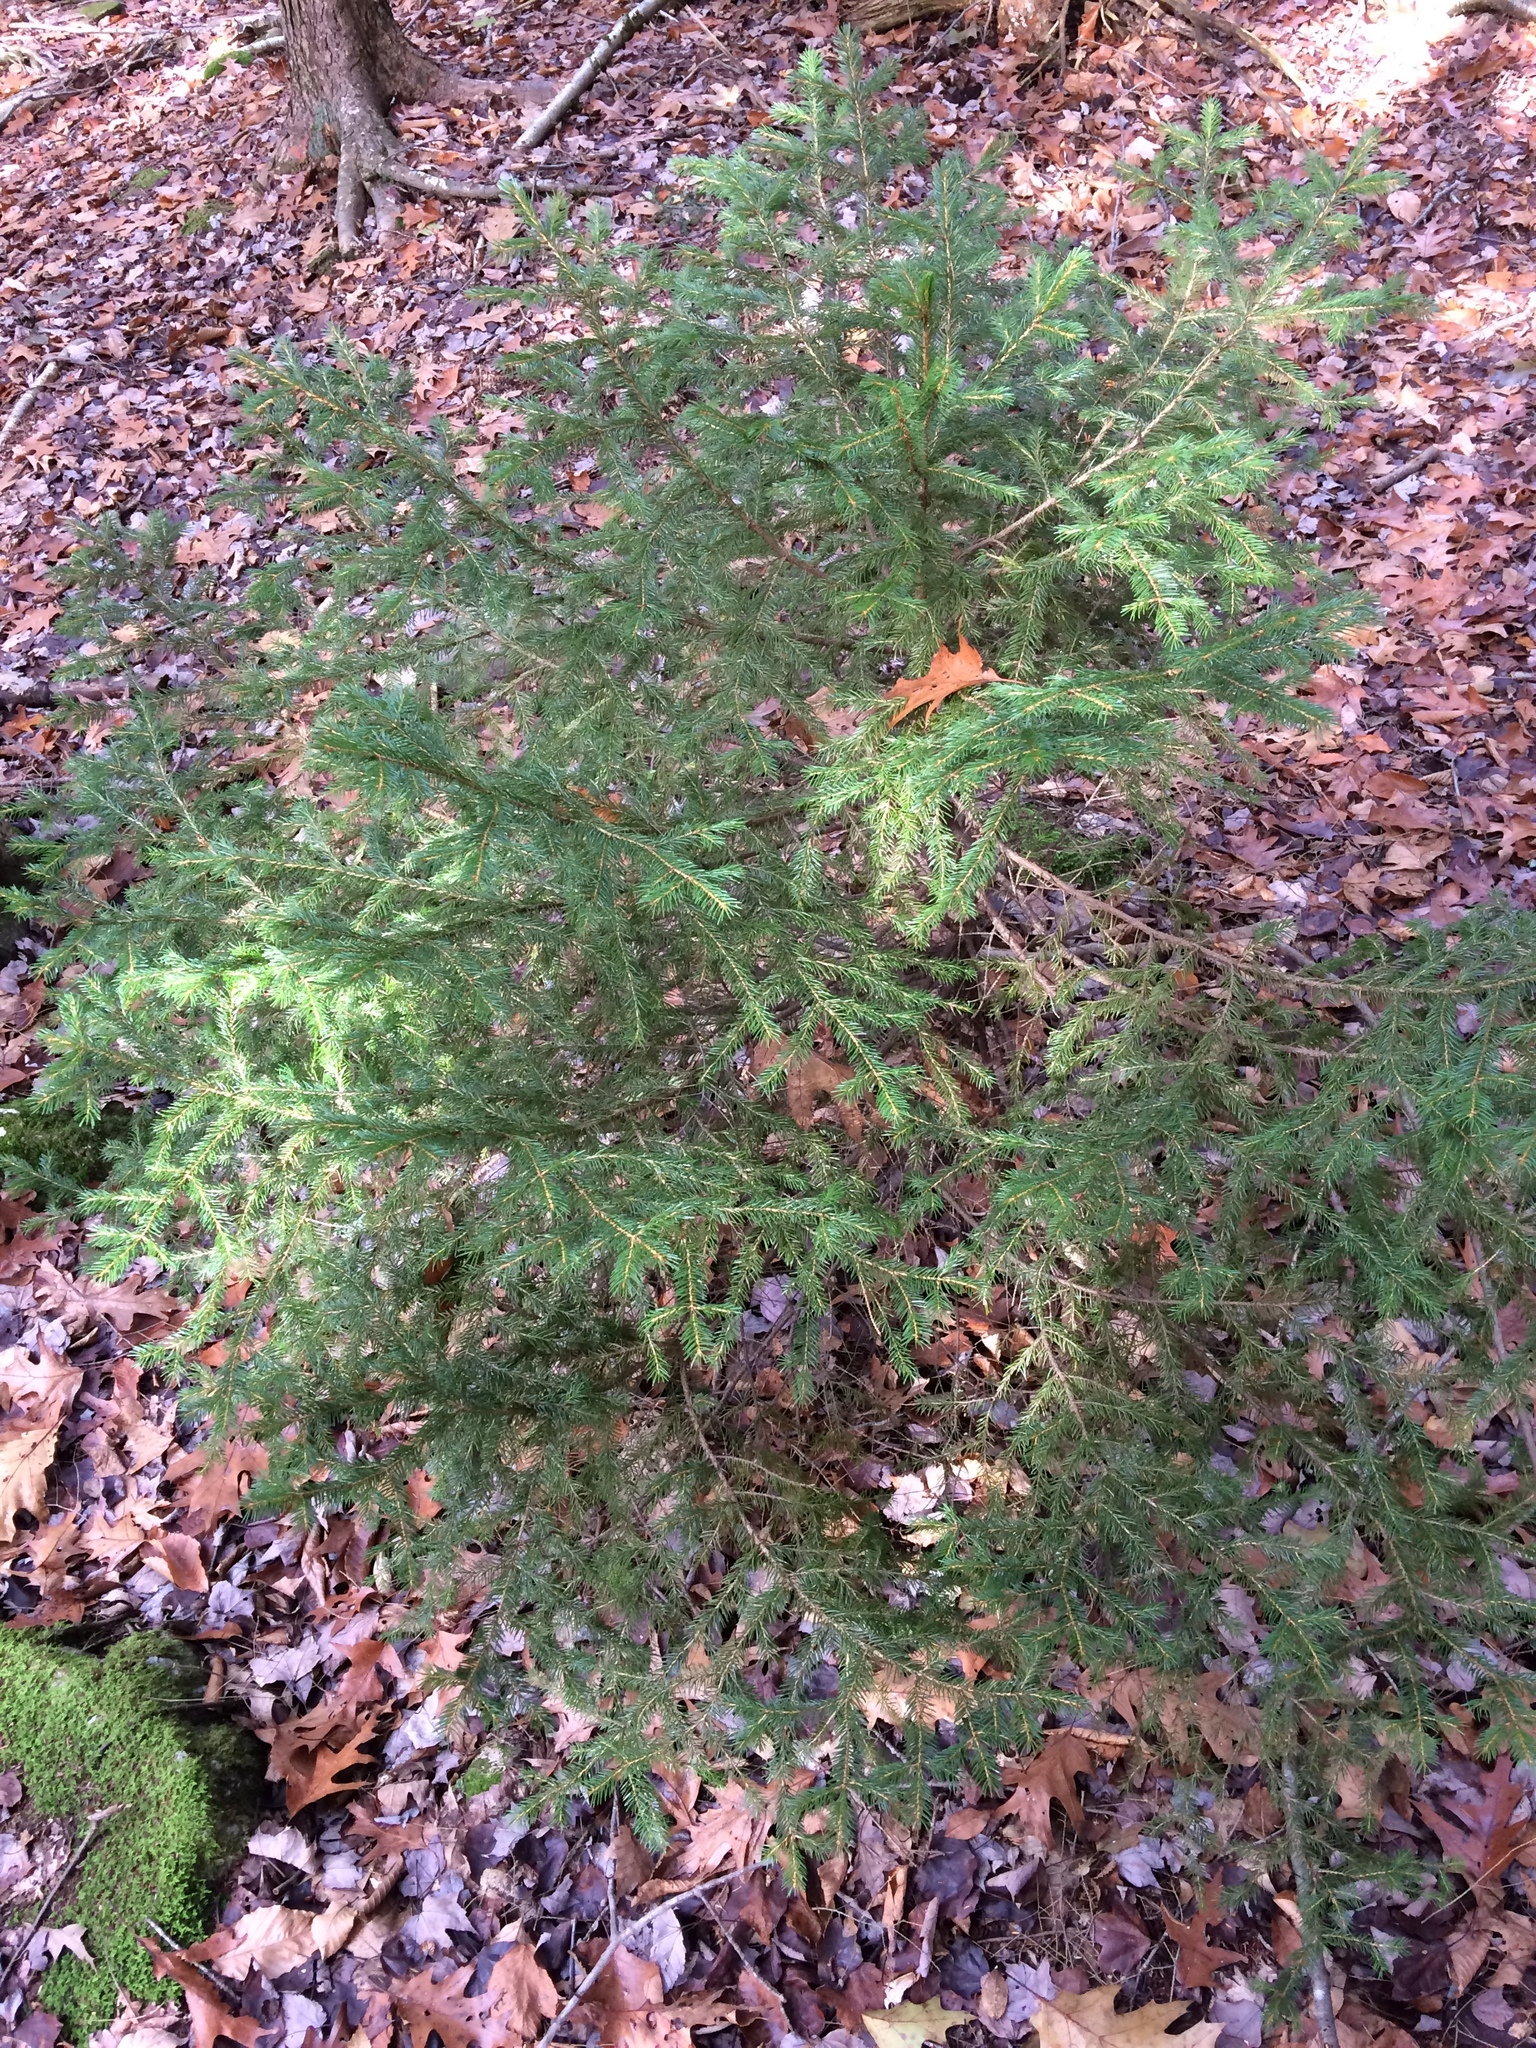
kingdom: Plantae
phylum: Tracheophyta
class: Pinopsida
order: Pinales
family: Pinaceae
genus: Picea
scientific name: Picea rubens
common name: Red spruce
